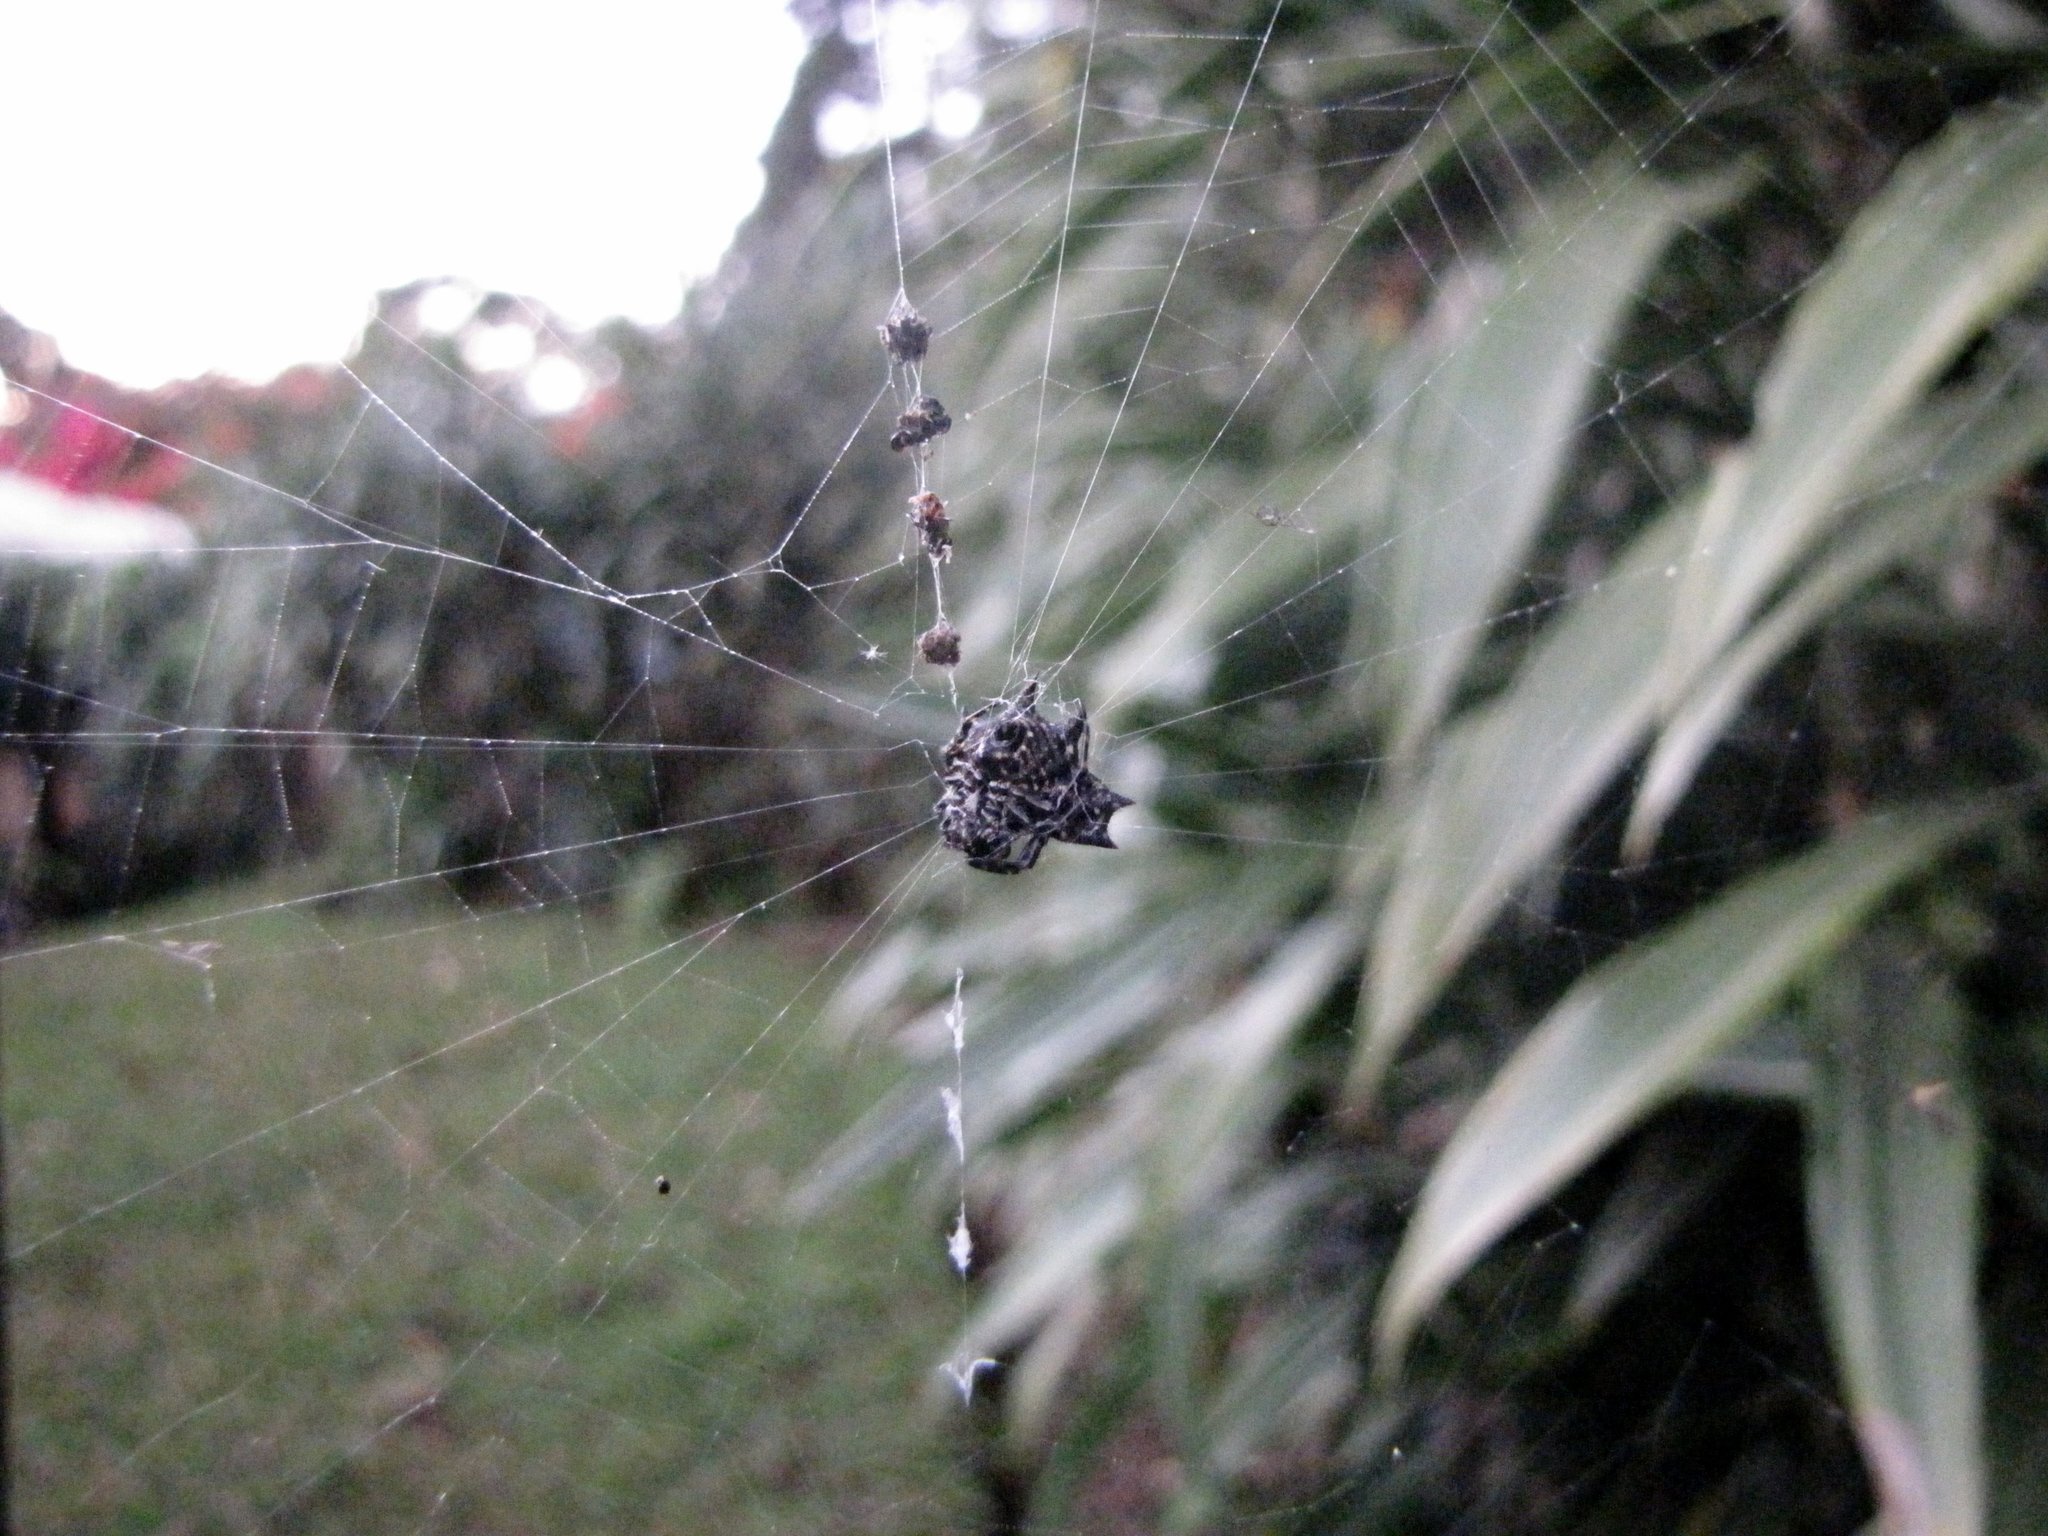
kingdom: Animalia
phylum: Arthropoda
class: Arachnida
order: Araneae
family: Araneidae
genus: Gasteracantha
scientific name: Gasteracantha cancriformis
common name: Orb weavers
